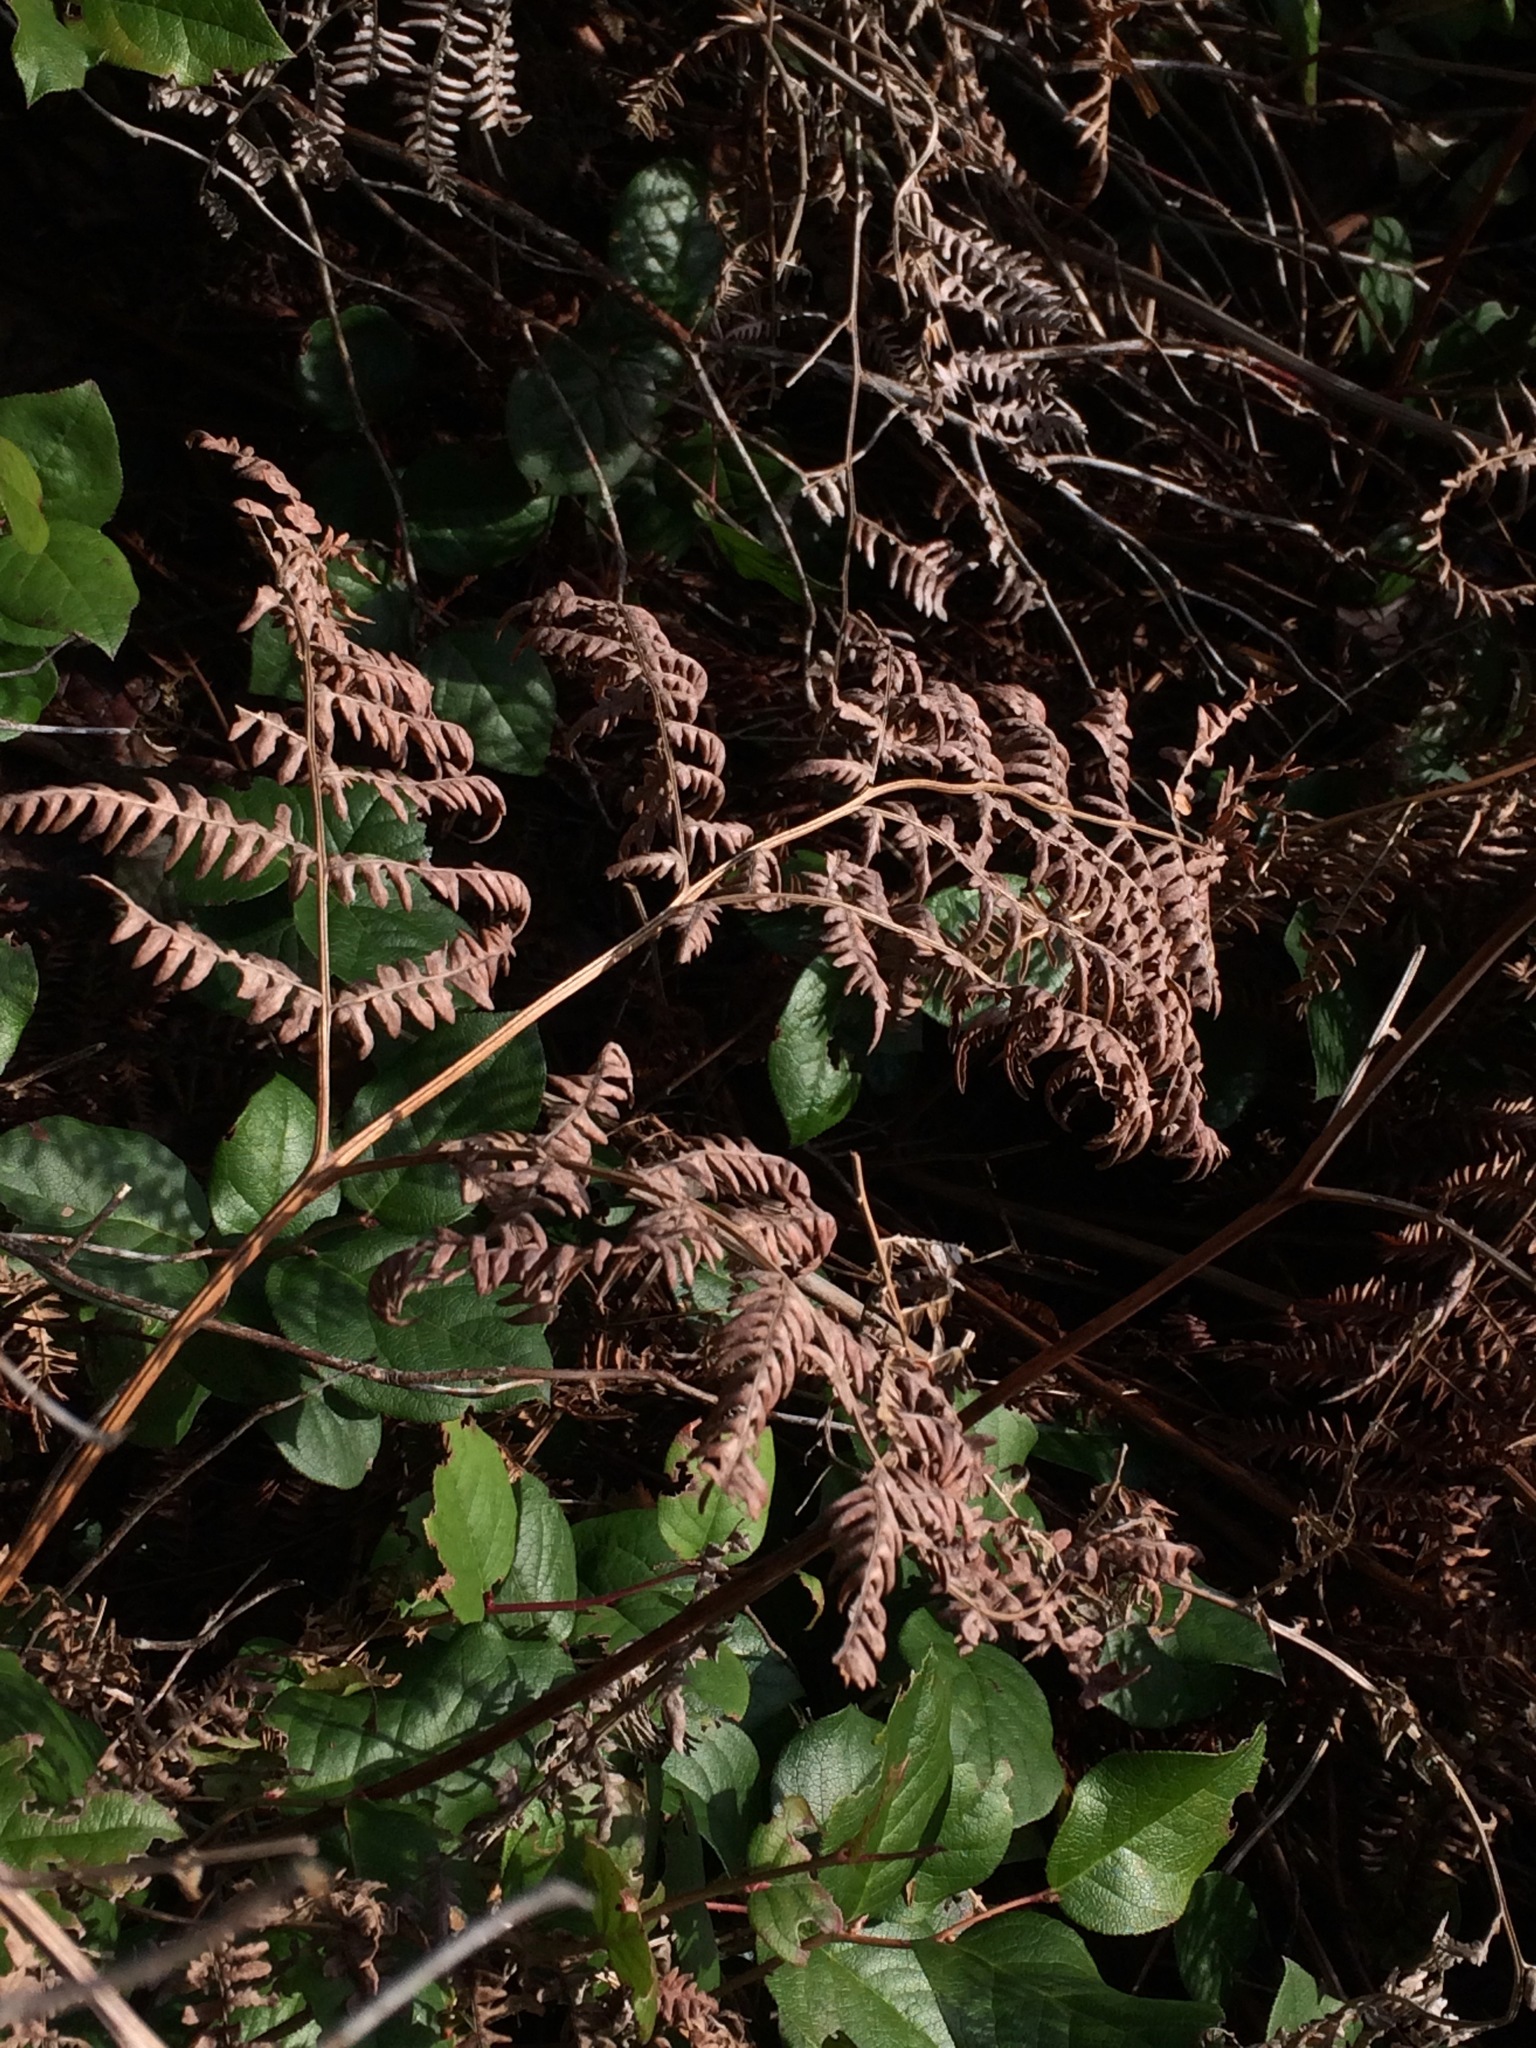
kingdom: Plantae
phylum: Tracheophyta
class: Polypodiopsida
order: Polypodiales
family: Dennstaedtiaceae
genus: Pteridium
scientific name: Pteridium aquilinum
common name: Bracken
